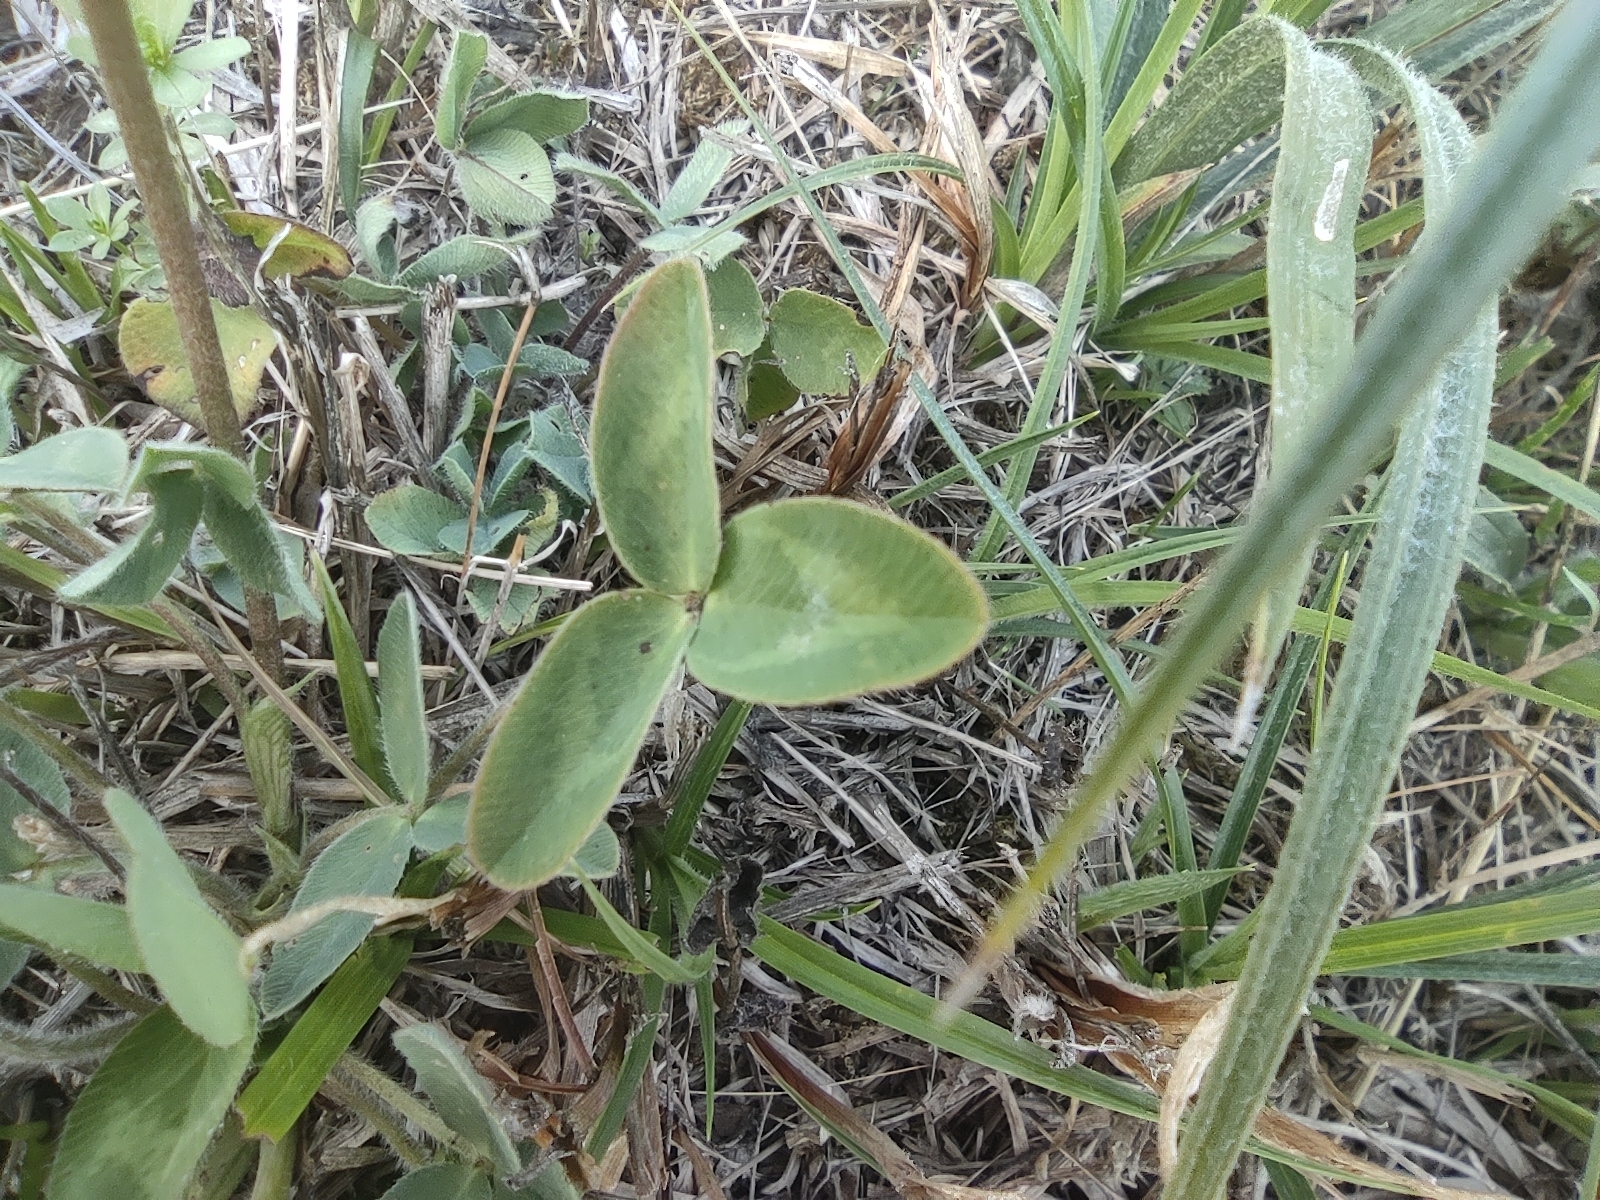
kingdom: Plantae
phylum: Tracheophyta
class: Magnoliopsida
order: Fabales
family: Fabaceae
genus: Trifolium
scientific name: Trifolium pratense
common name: Red clover
